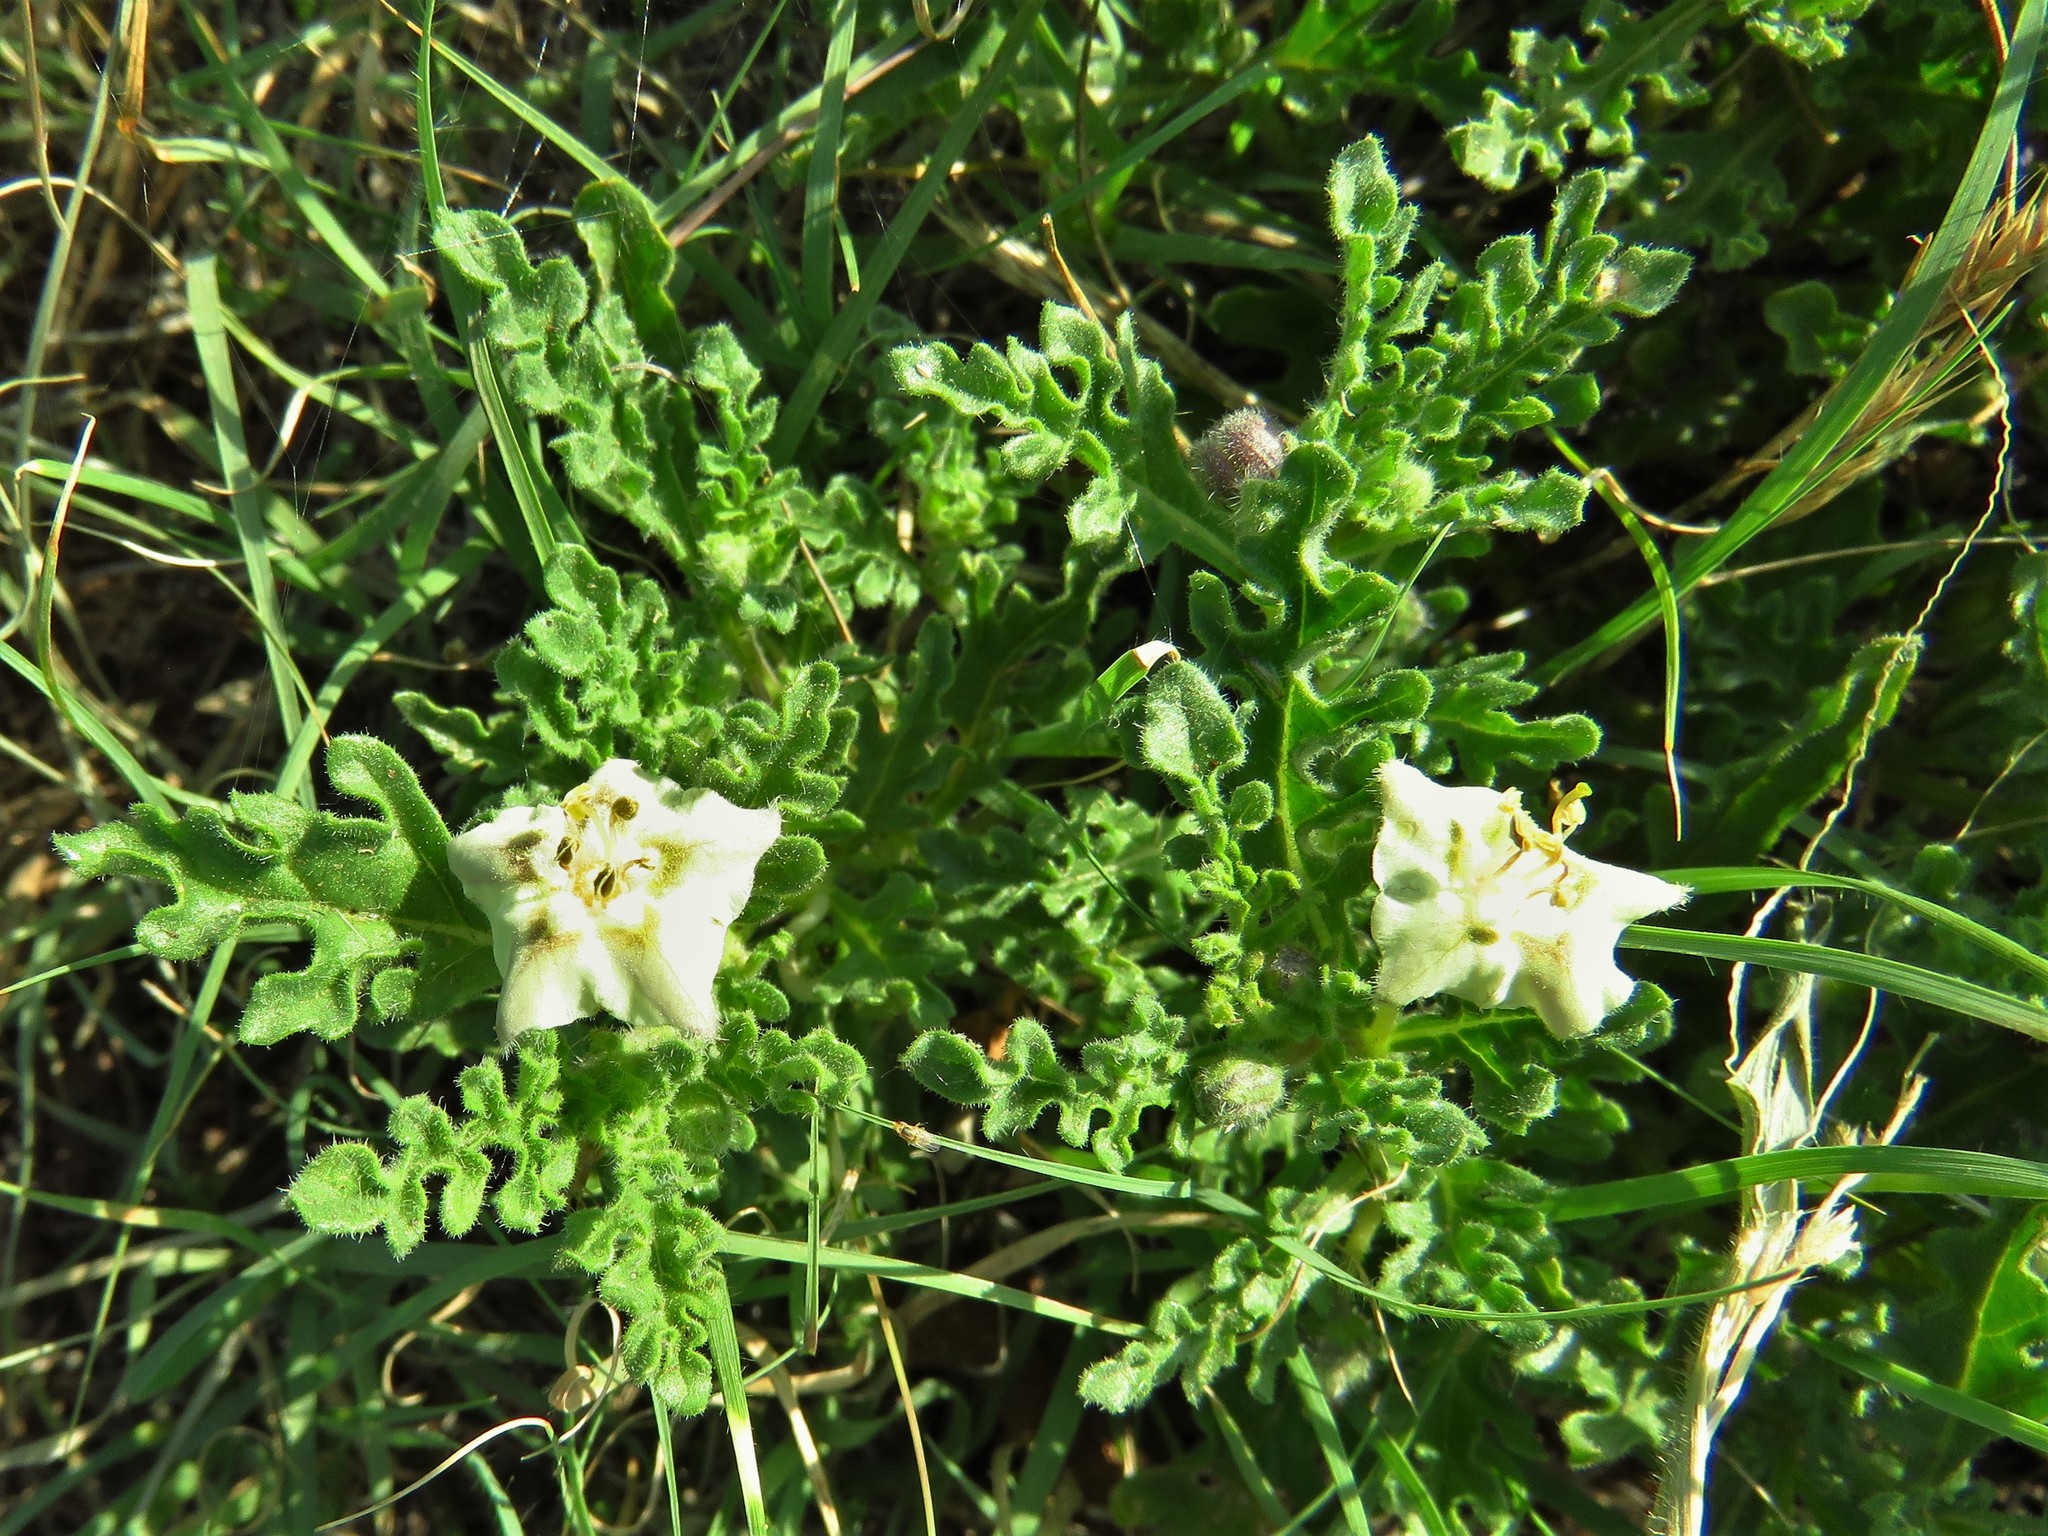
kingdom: Plantae
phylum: Tracheophyta
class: Magnoliopsida
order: Solanales
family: Solanaceae
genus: Chamaesaracha
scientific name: Chamaesaracha coniodes
